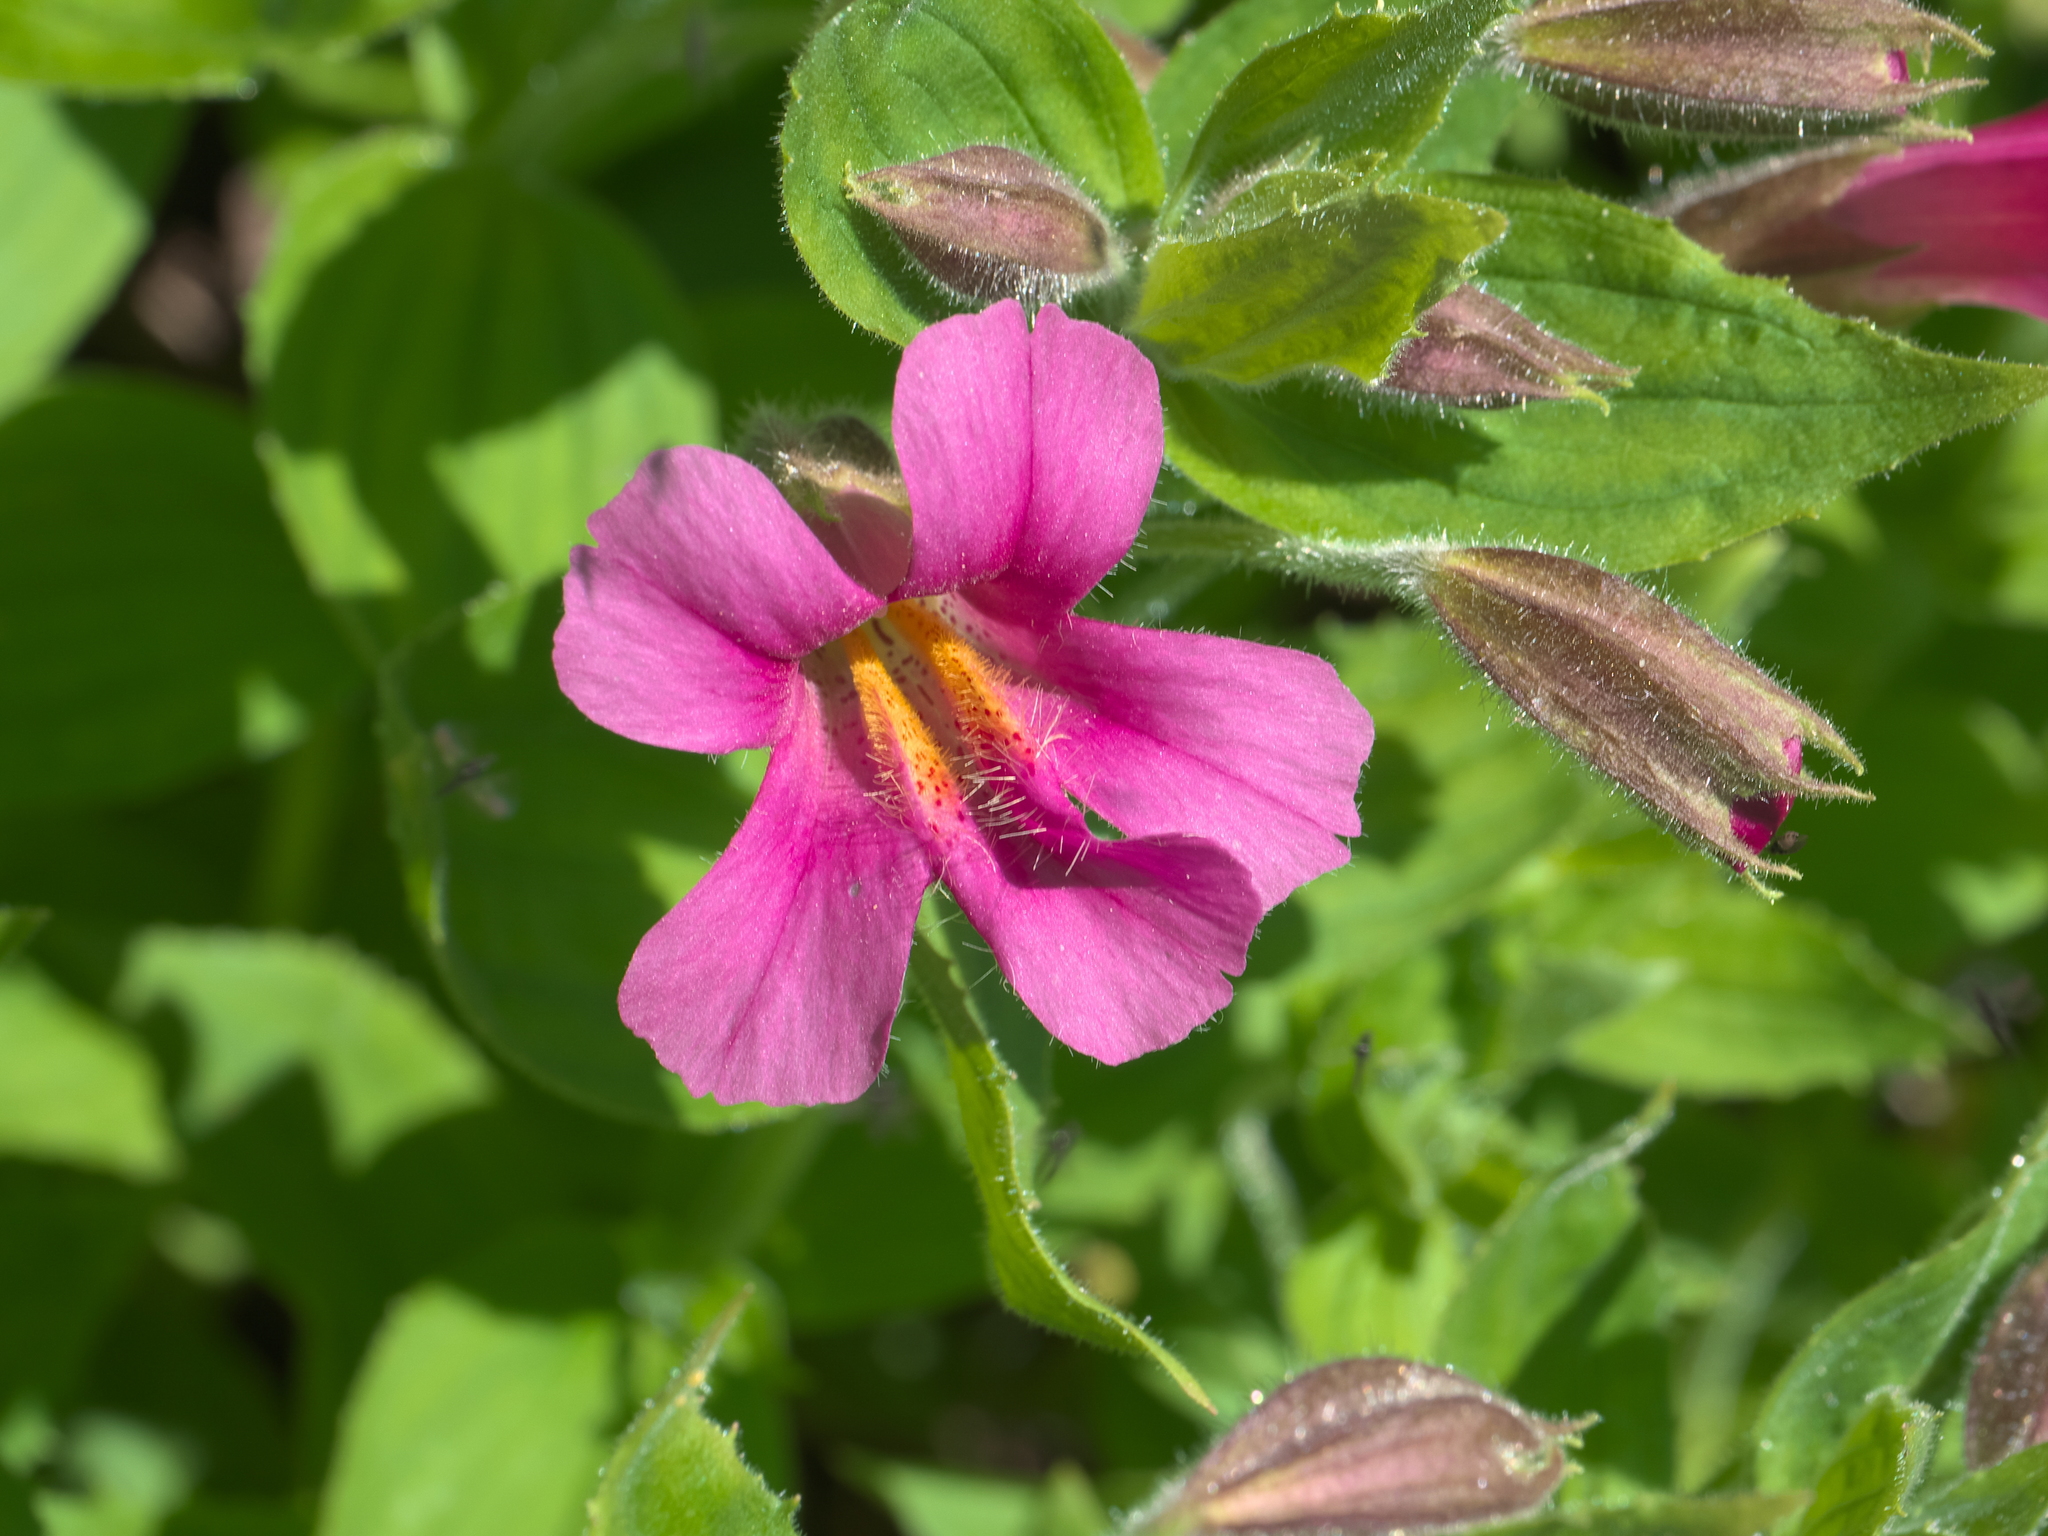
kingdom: Plantae
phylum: Tracheophyta
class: Magnoliopsida
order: Lamiales
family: Phrymaceae
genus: Erythranthe
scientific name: Erythranthe lewisii
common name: Lewis's monkey-flower
